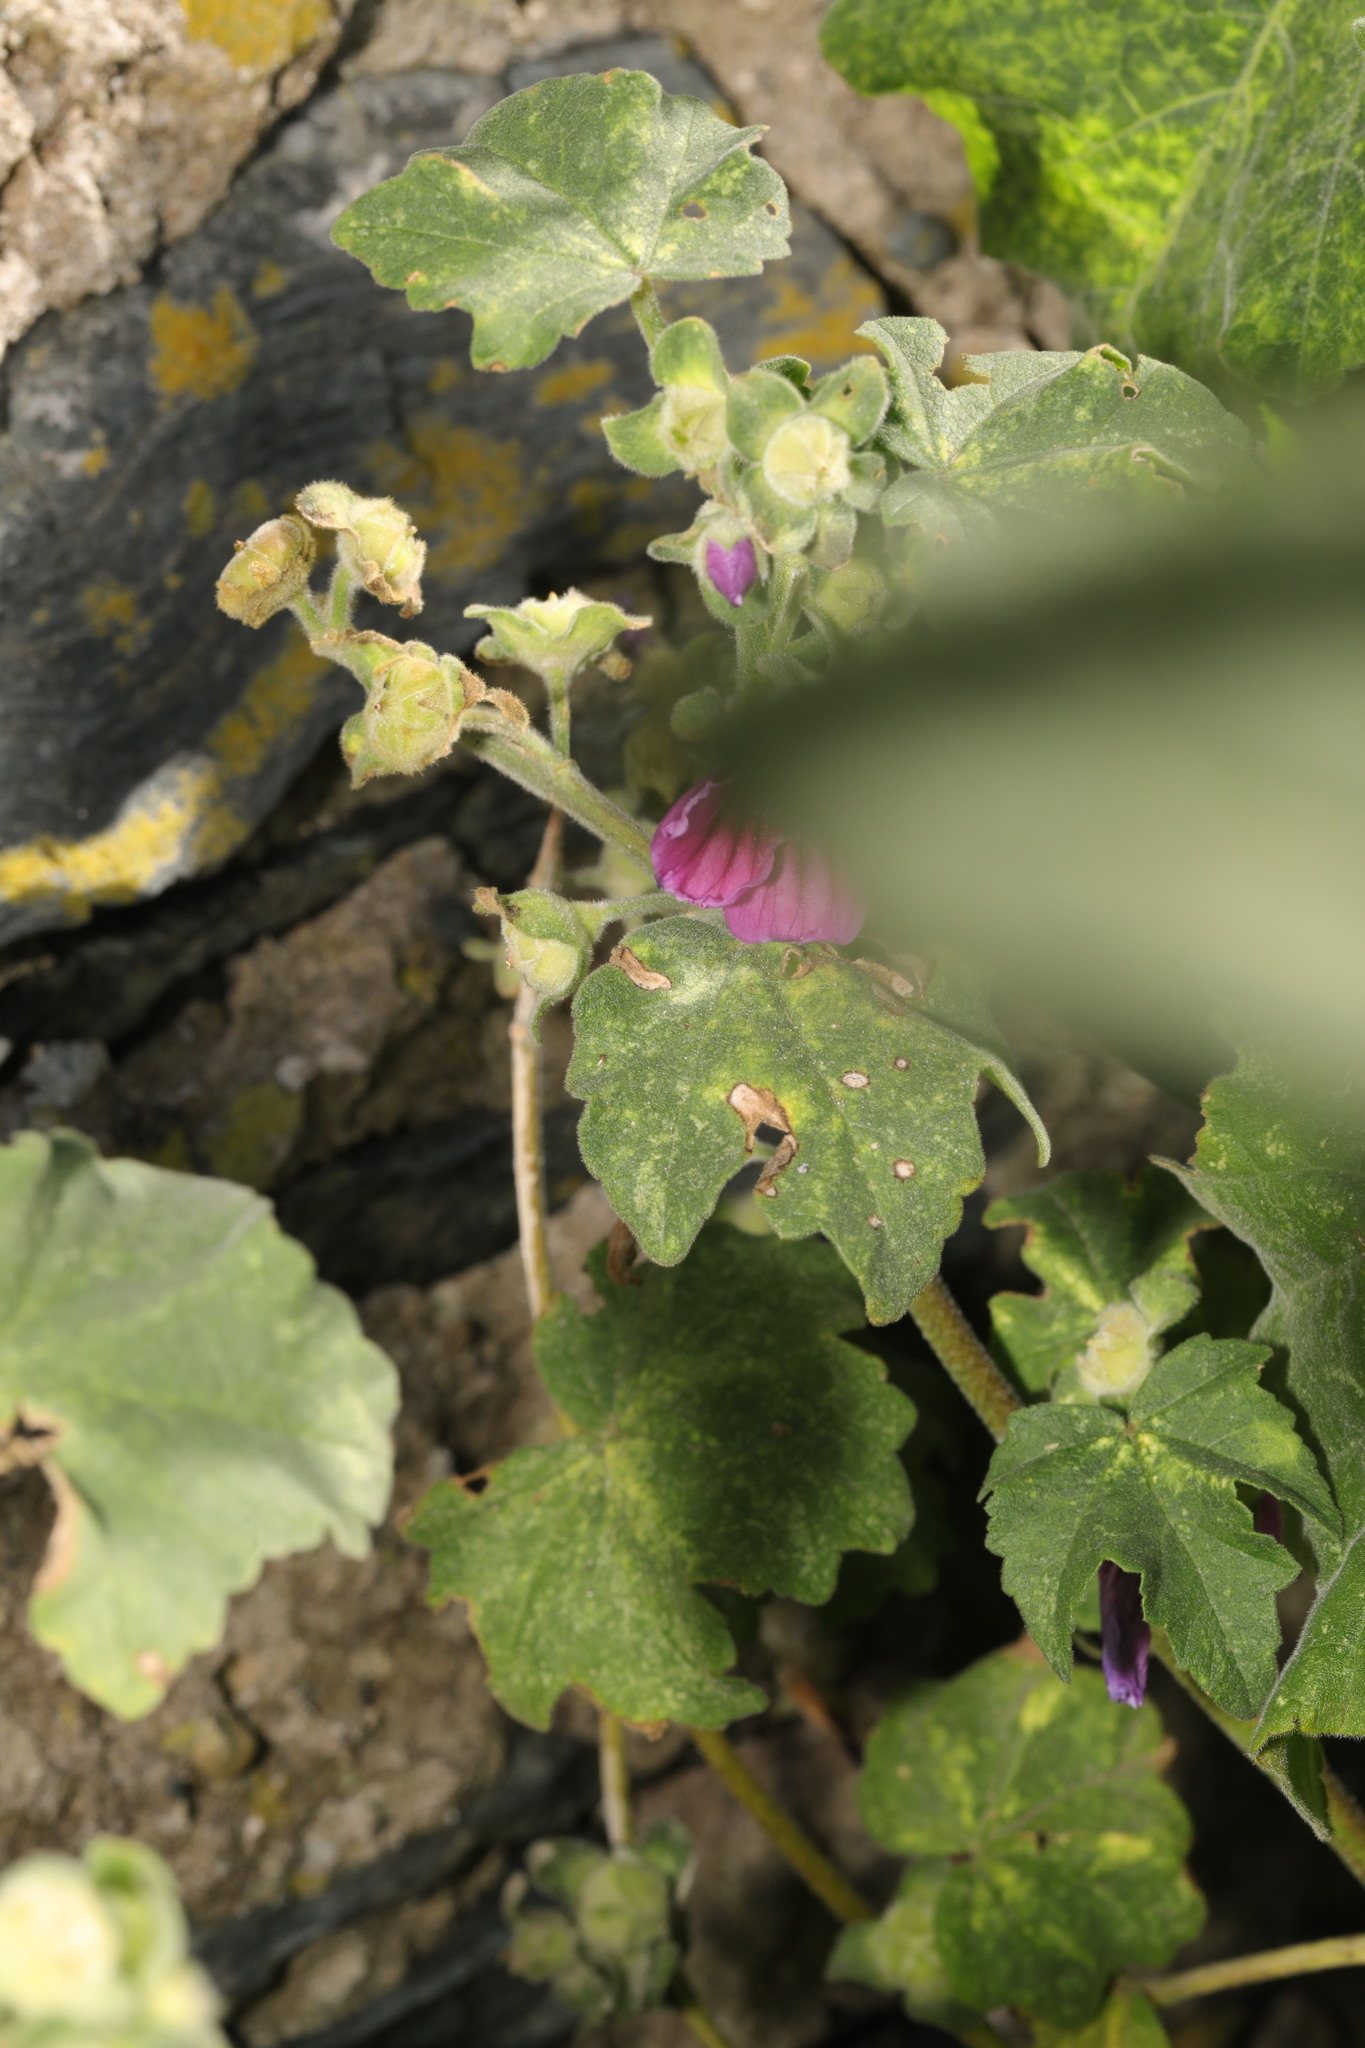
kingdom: Plantae
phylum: Tracheophyta
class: Magnoliopsida
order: Malvales
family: Malvaceae
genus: Malva
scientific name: Malva arborea
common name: Tree mallow
